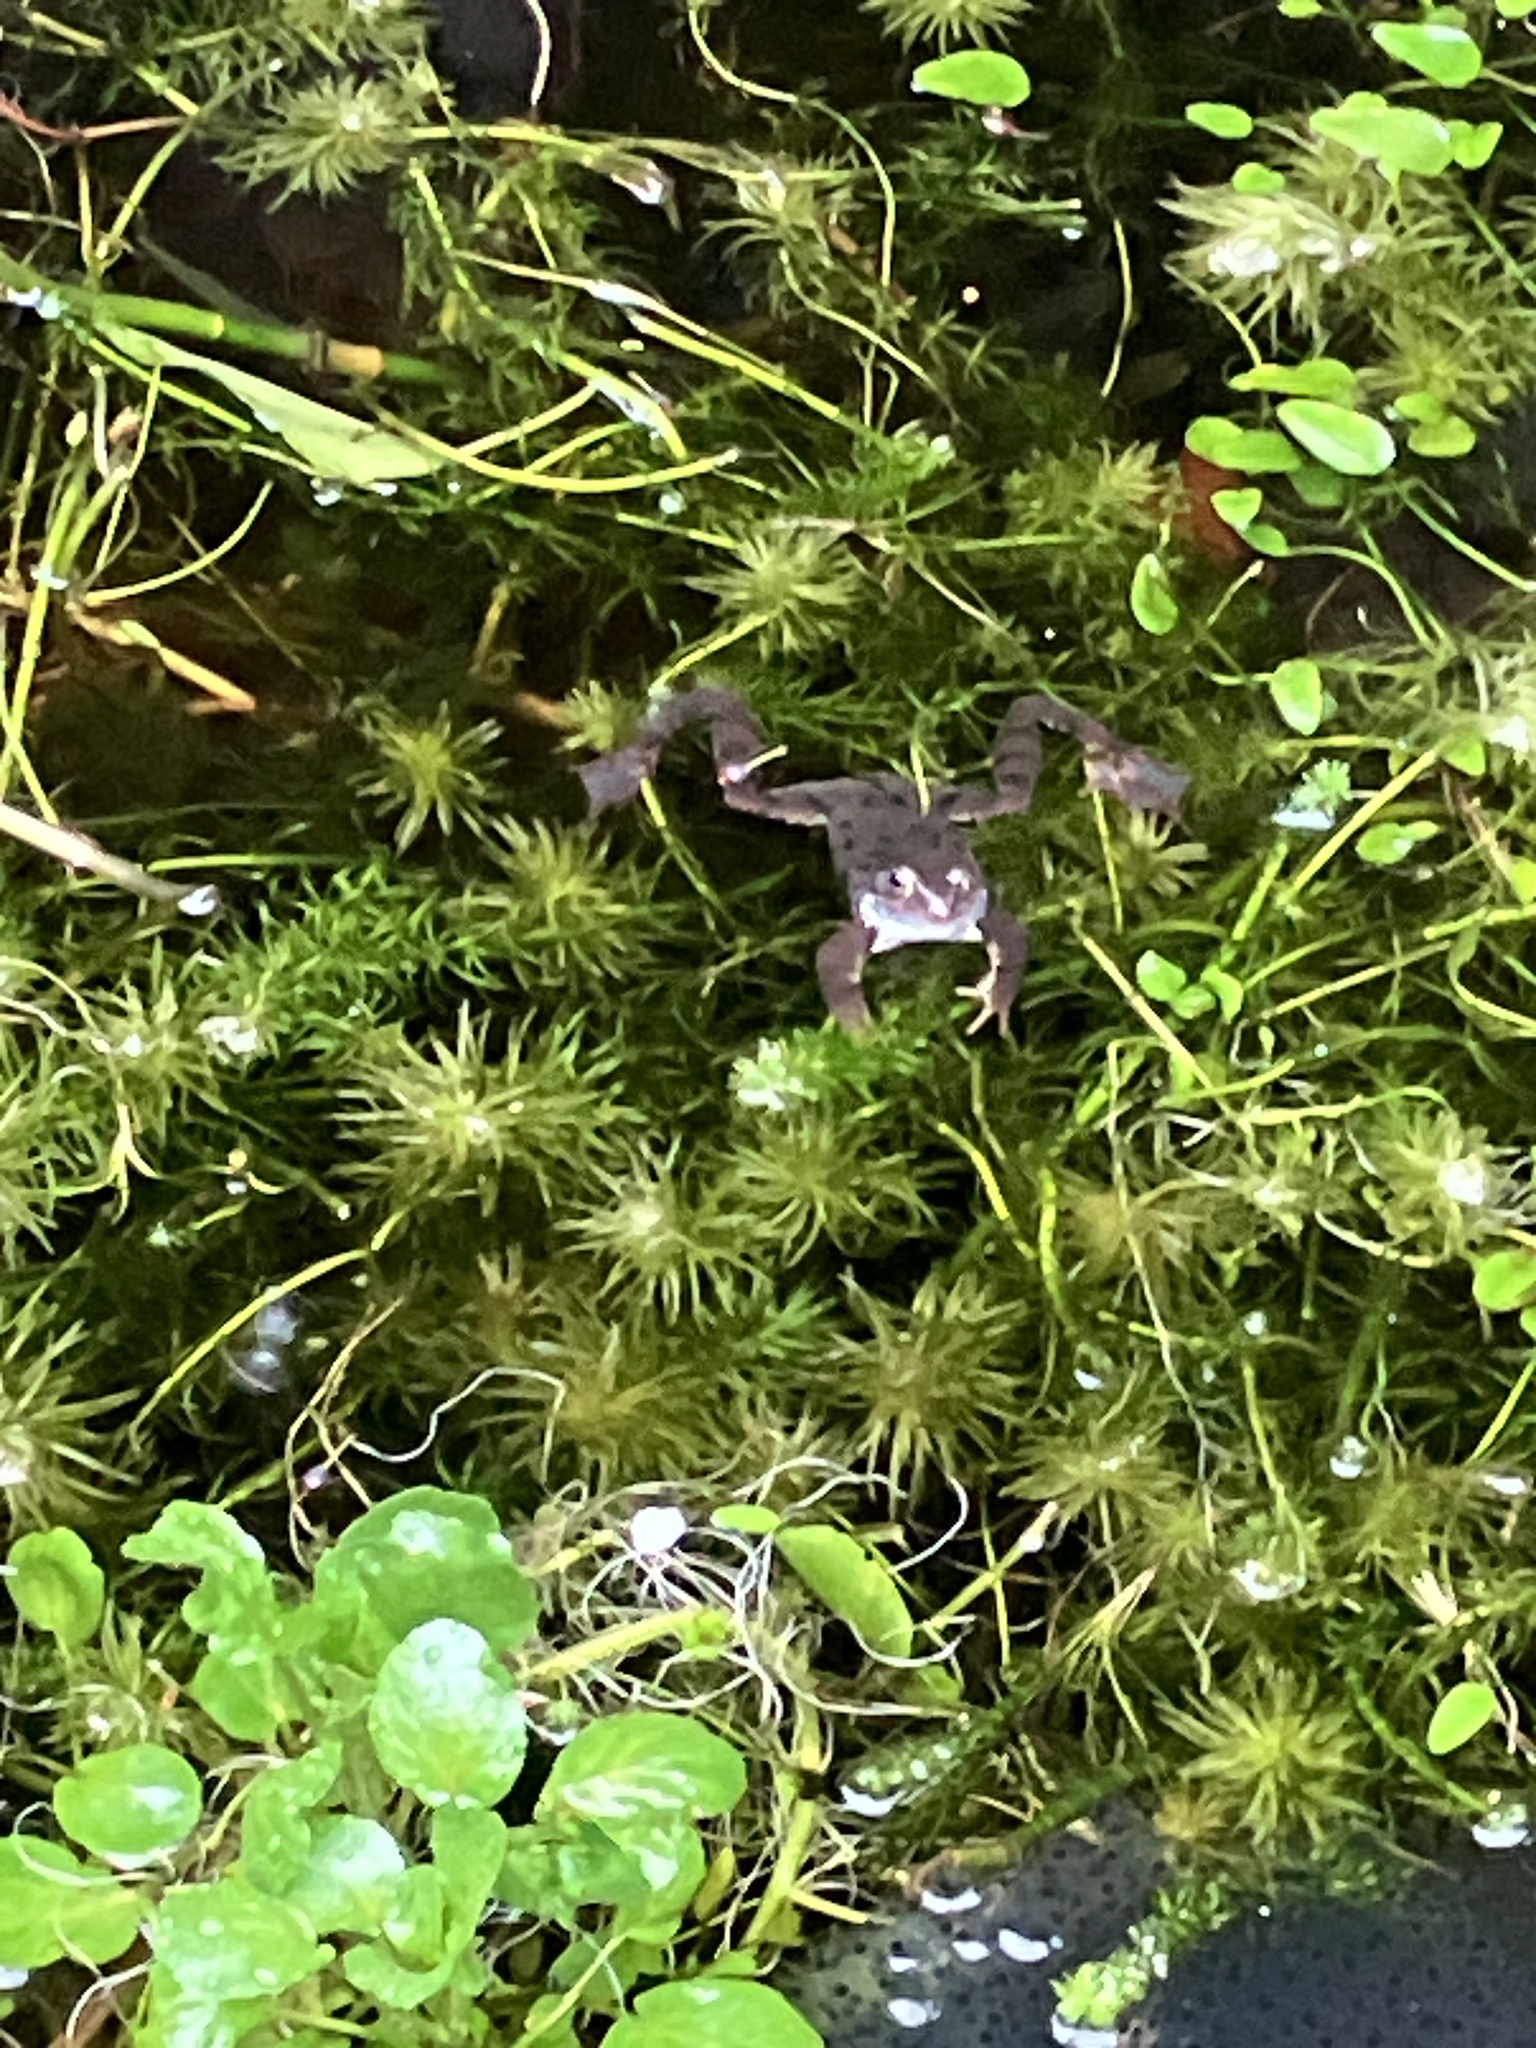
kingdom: Animalia
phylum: Chordata
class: Amphibia
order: Anura
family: Ranidae
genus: Rana
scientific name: Rana temporaria
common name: Common frog
